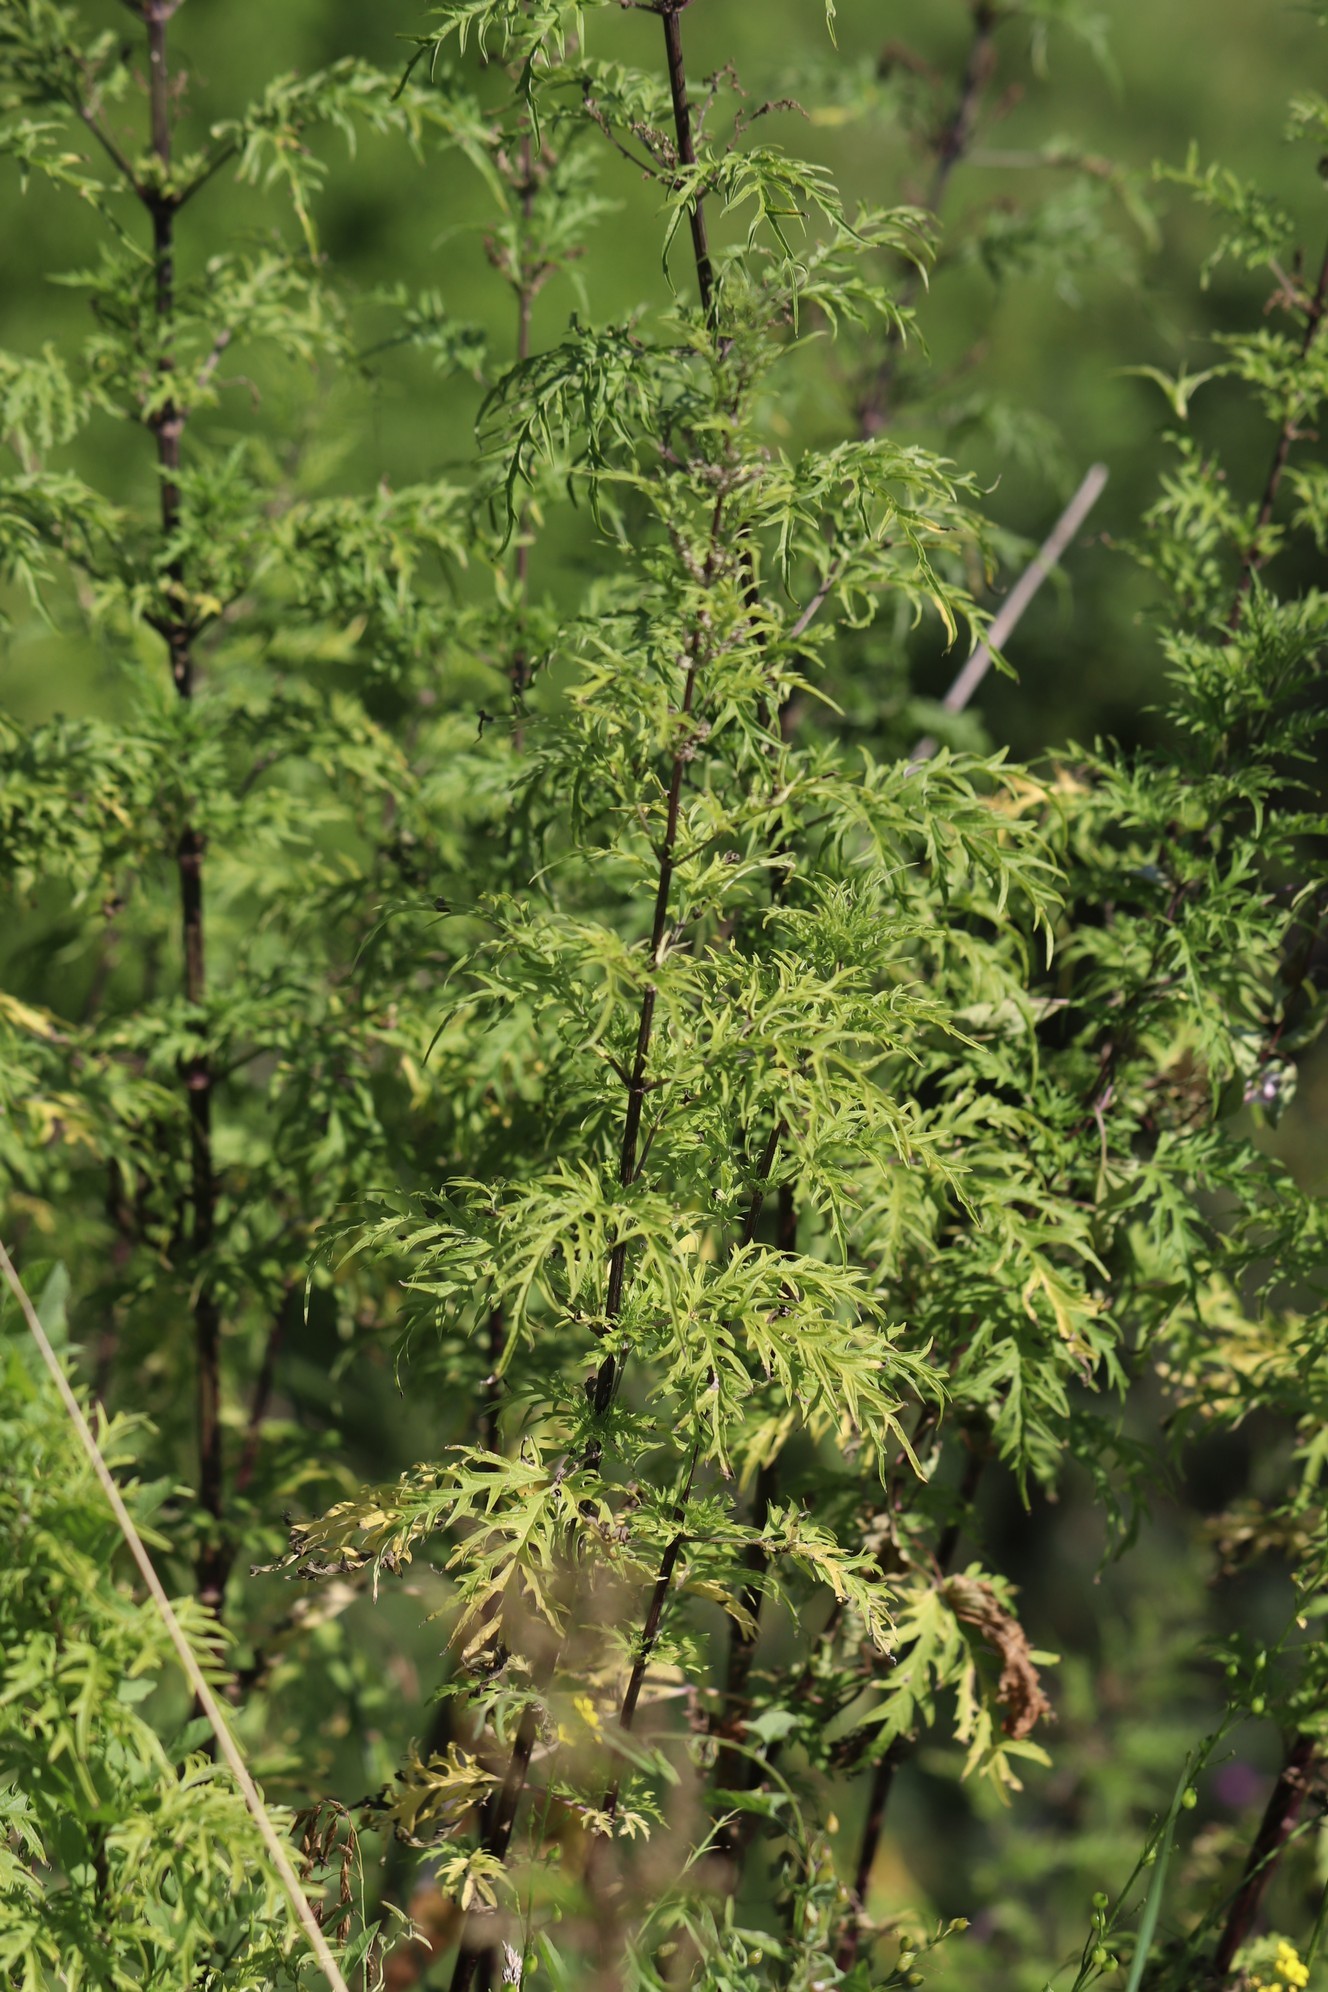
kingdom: Plantae
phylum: Tracheophyta
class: Magnoliopsida
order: Rosales
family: Urticaceae
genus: Urtica
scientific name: Urtica cannabina
